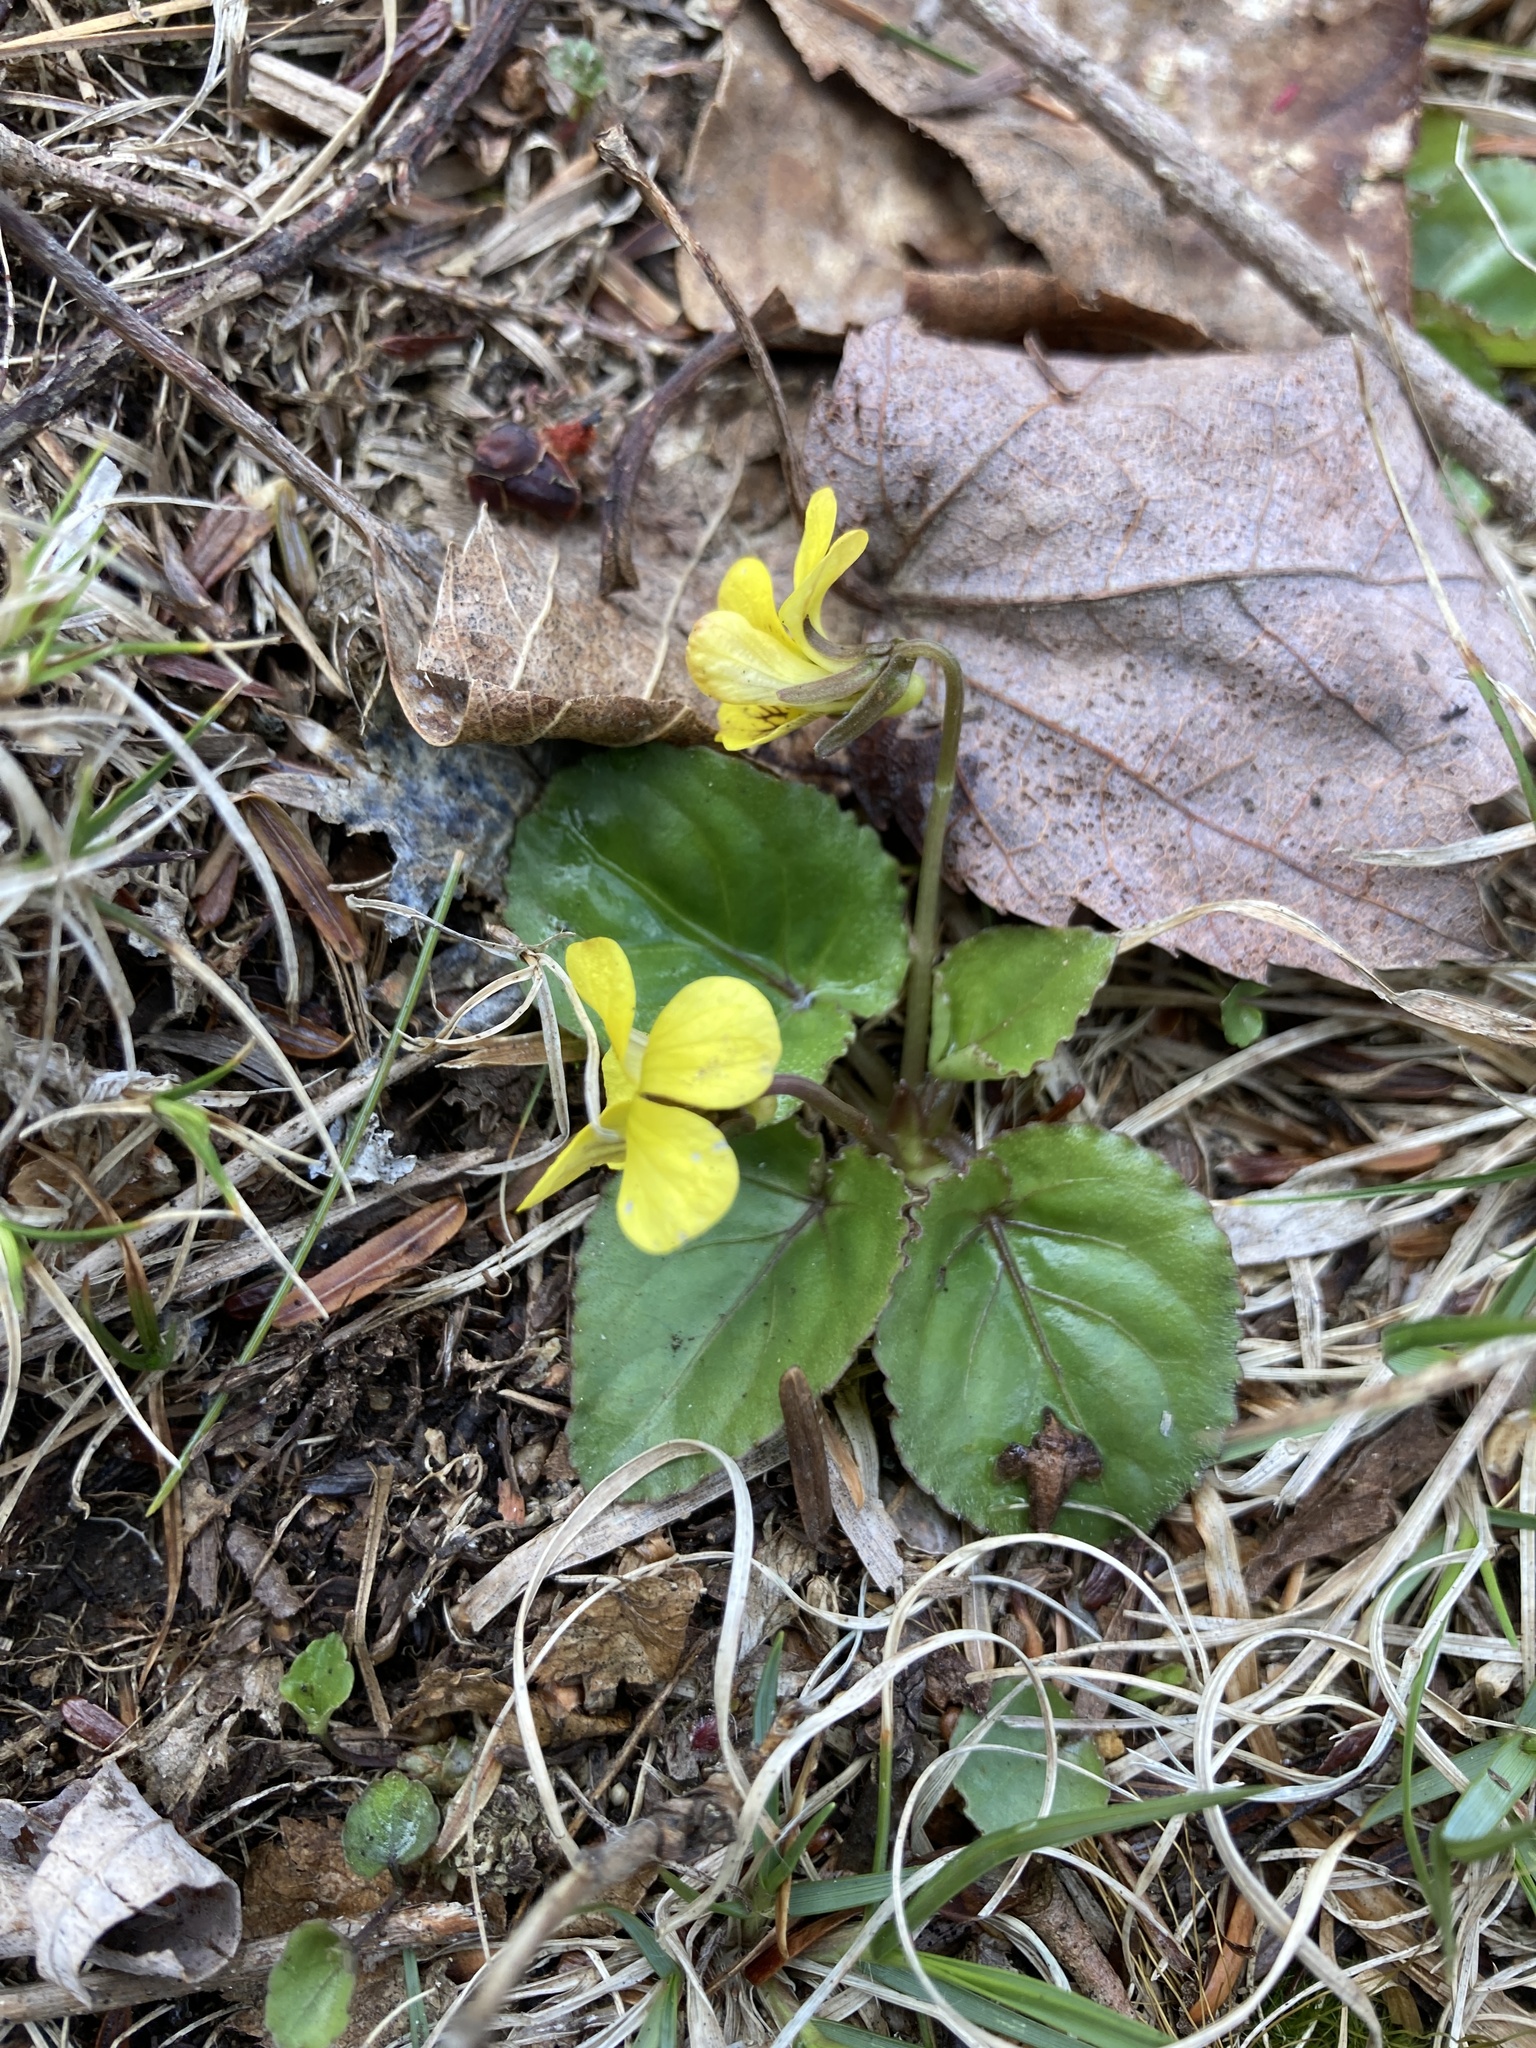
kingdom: Plantae
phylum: Tracheophyta
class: Magnoliopsida
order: Malpighiales
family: Violaceae
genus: Viola
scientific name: Viola rotundifolia
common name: Early yellow violet
